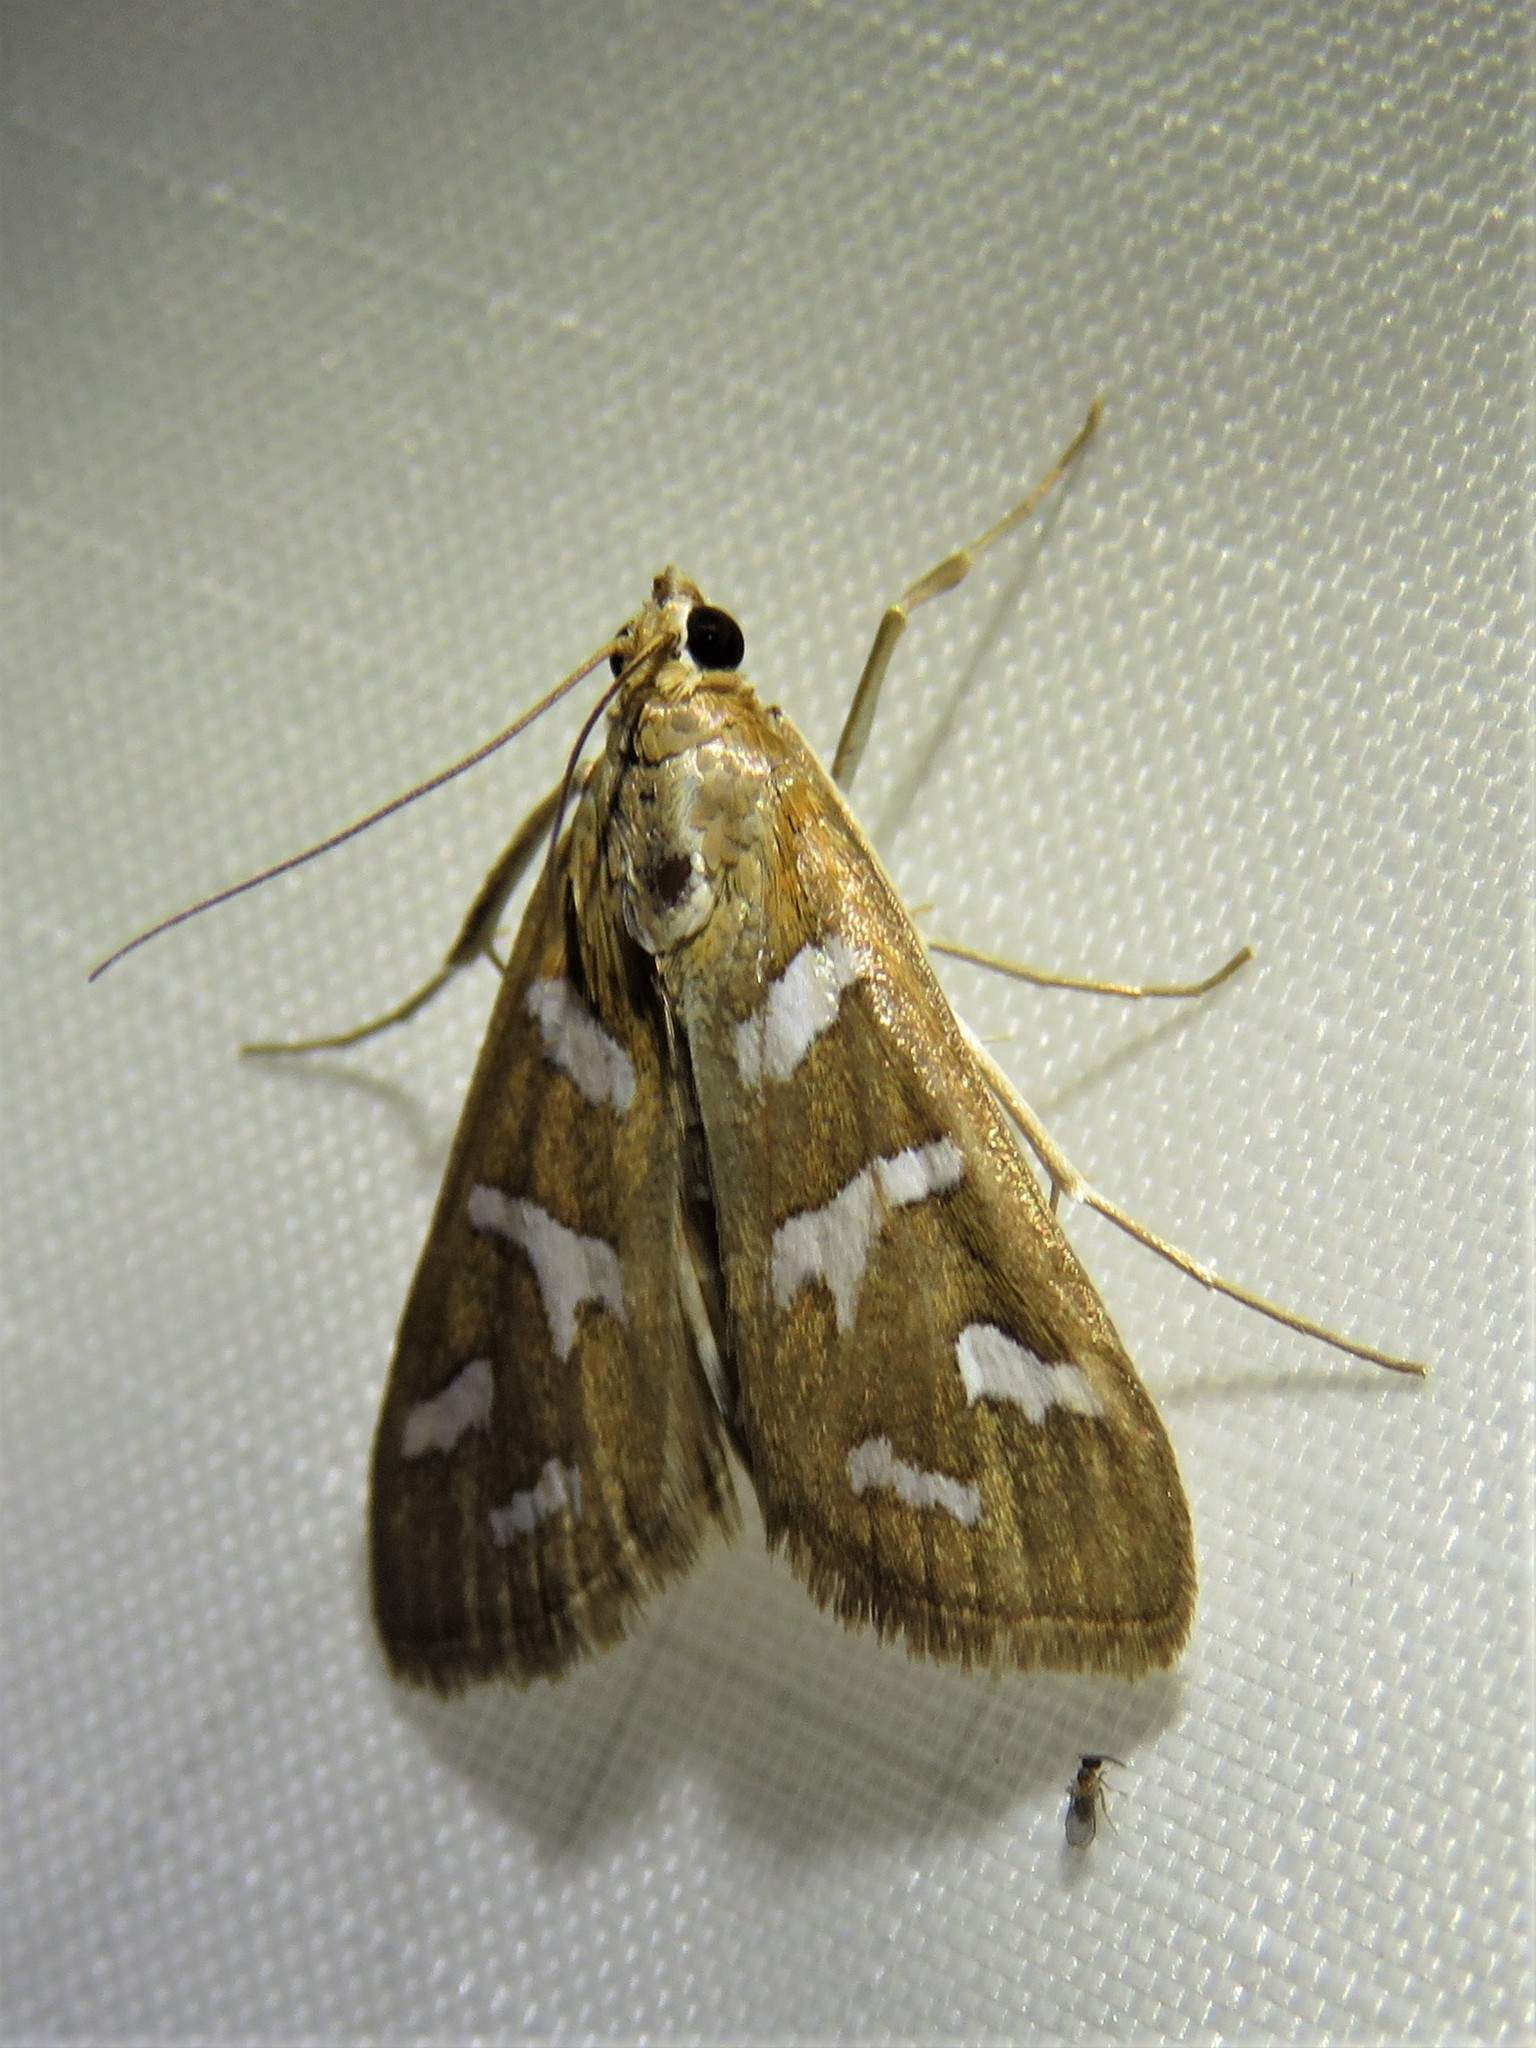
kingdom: Animalia
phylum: Arthropoda
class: Insecta
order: Lepidoptera
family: Crambidae
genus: Diastictis
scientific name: Diastictis fracturalis
